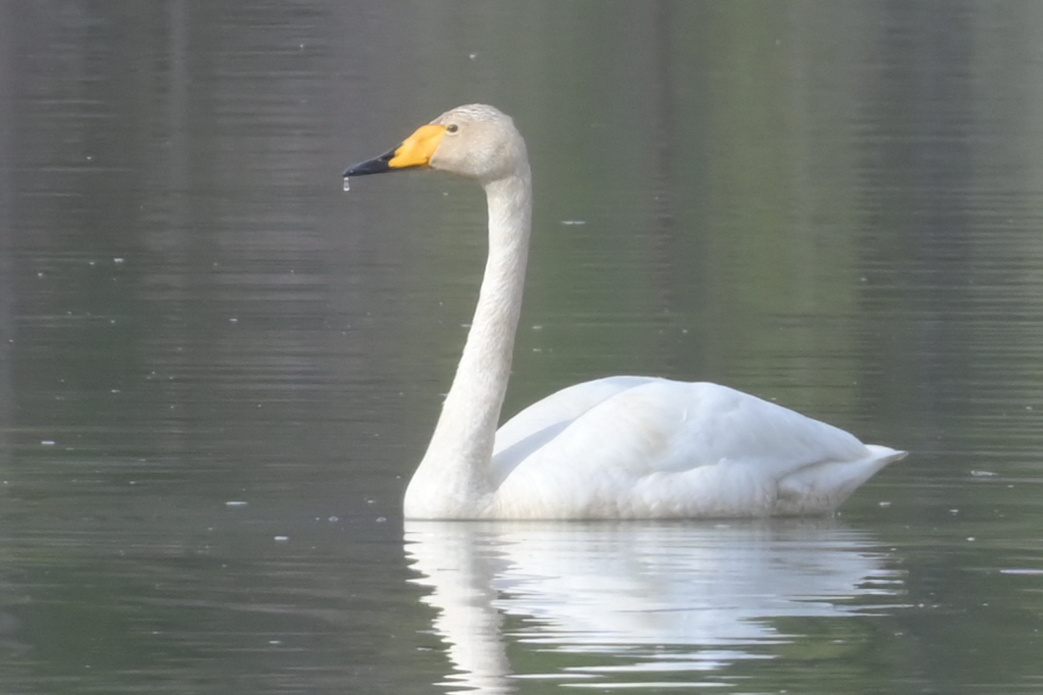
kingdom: Animalia
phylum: Chordata
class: Aves
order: Anseriformes
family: Anatidae
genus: Cygnus
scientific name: Cygnus cygnus
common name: Whooper swan
